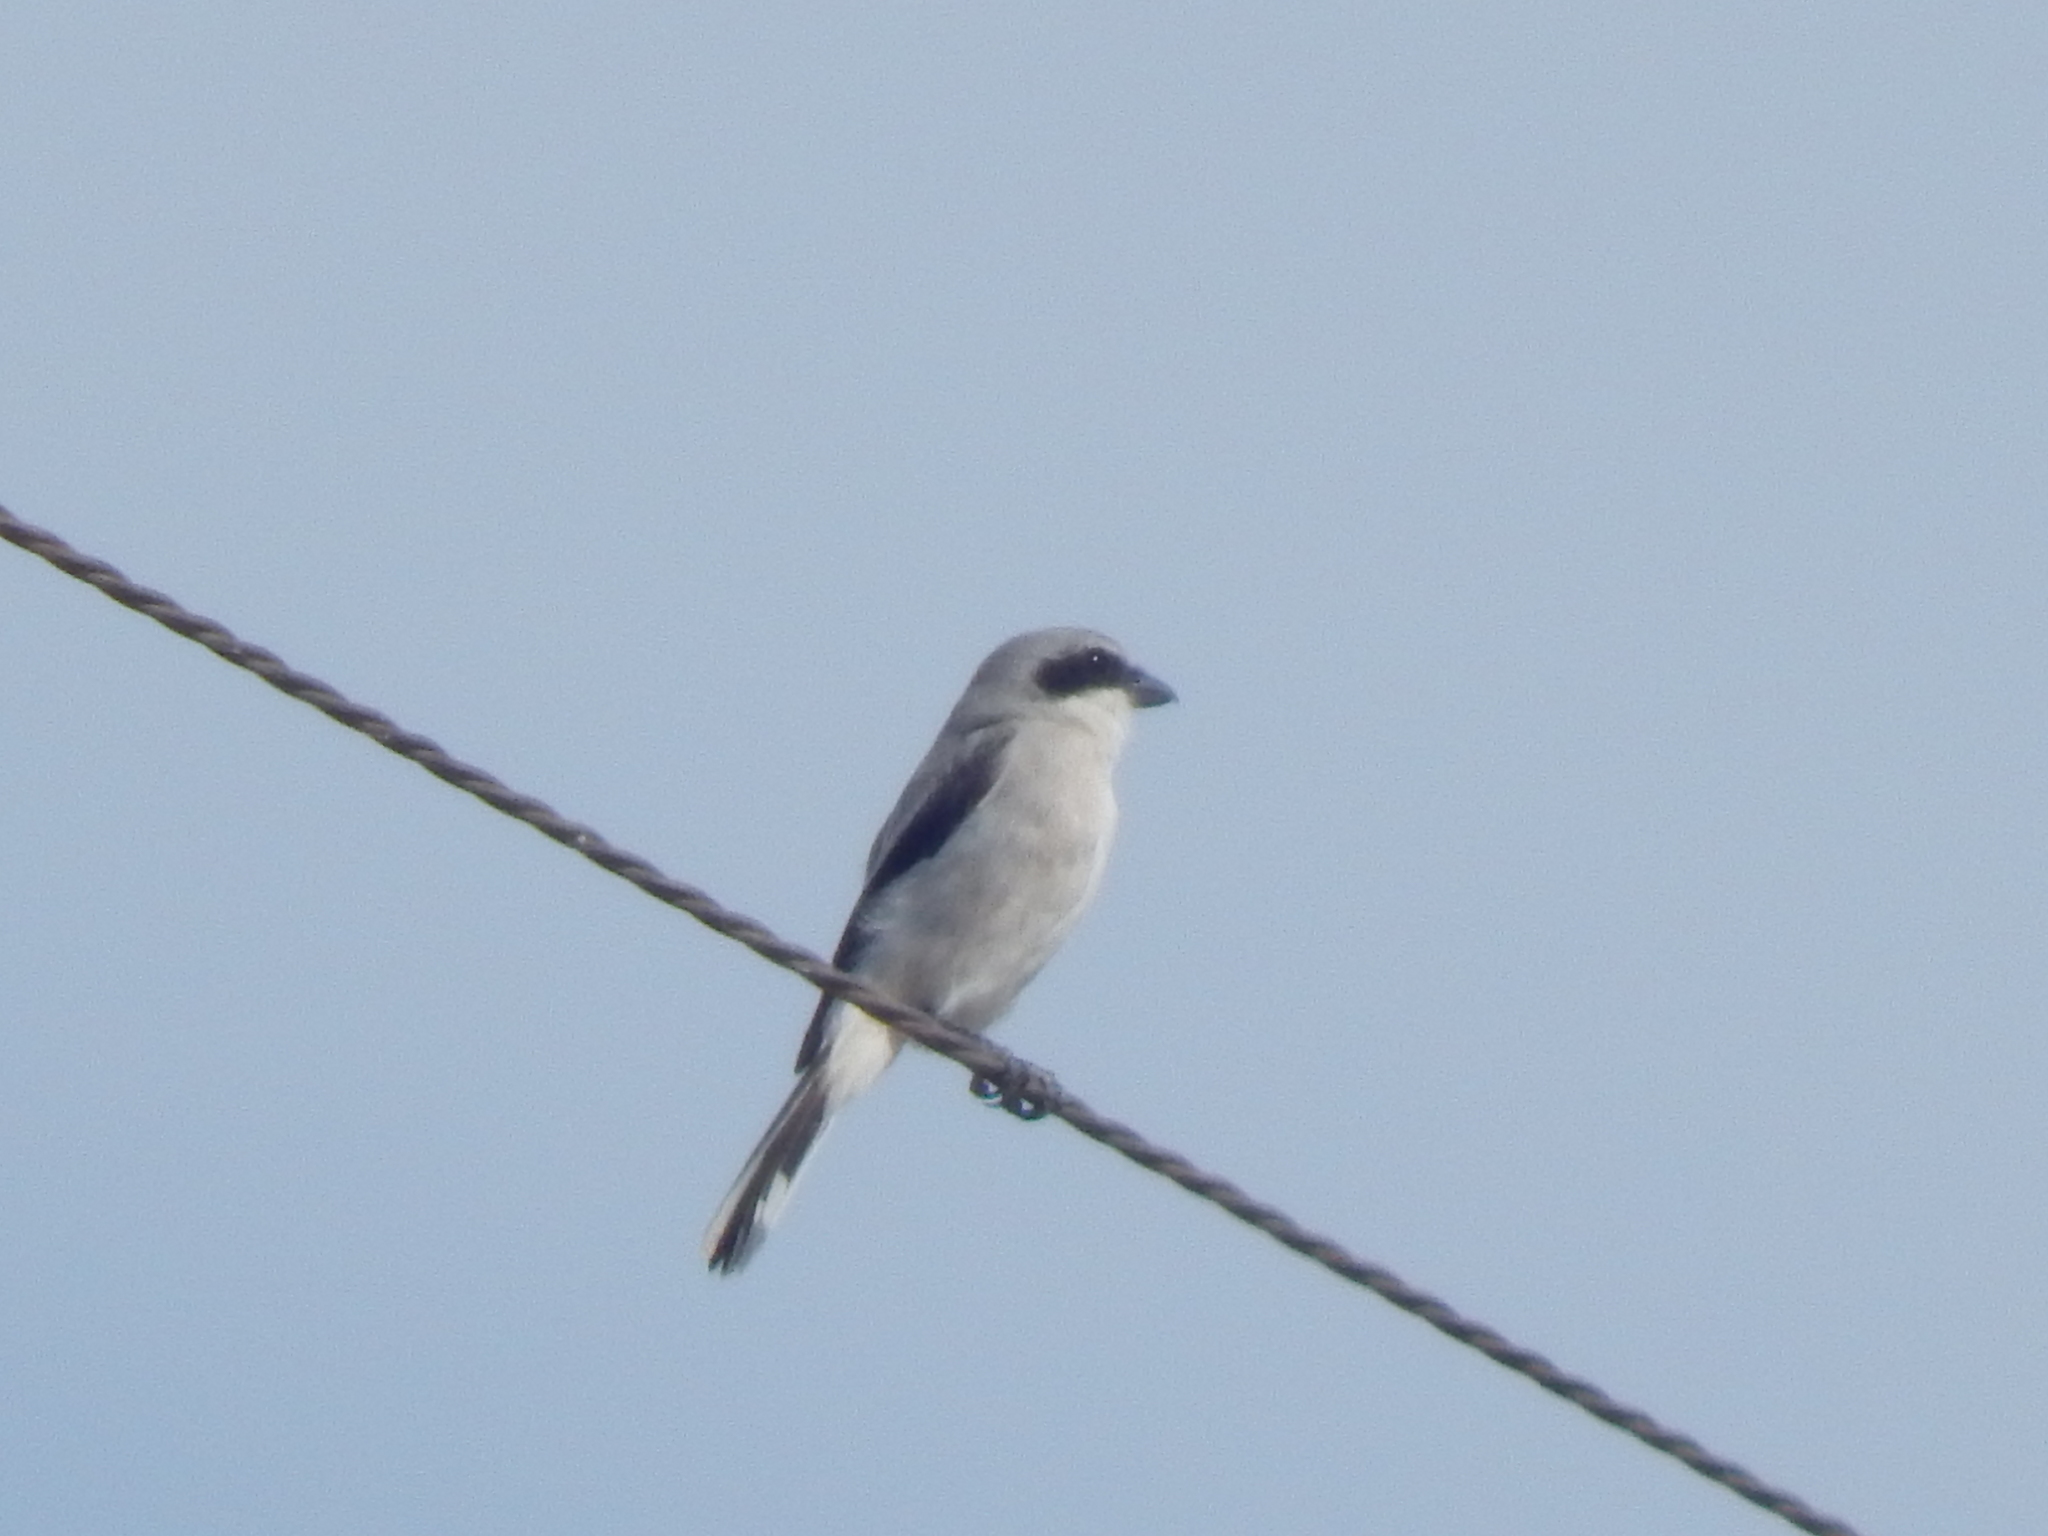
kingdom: Animalia
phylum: Chordata
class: Aves
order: Passeriformes
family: Laniidae
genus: Lanius
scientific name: Lanius ludovicianus
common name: Loggerhead shrike
